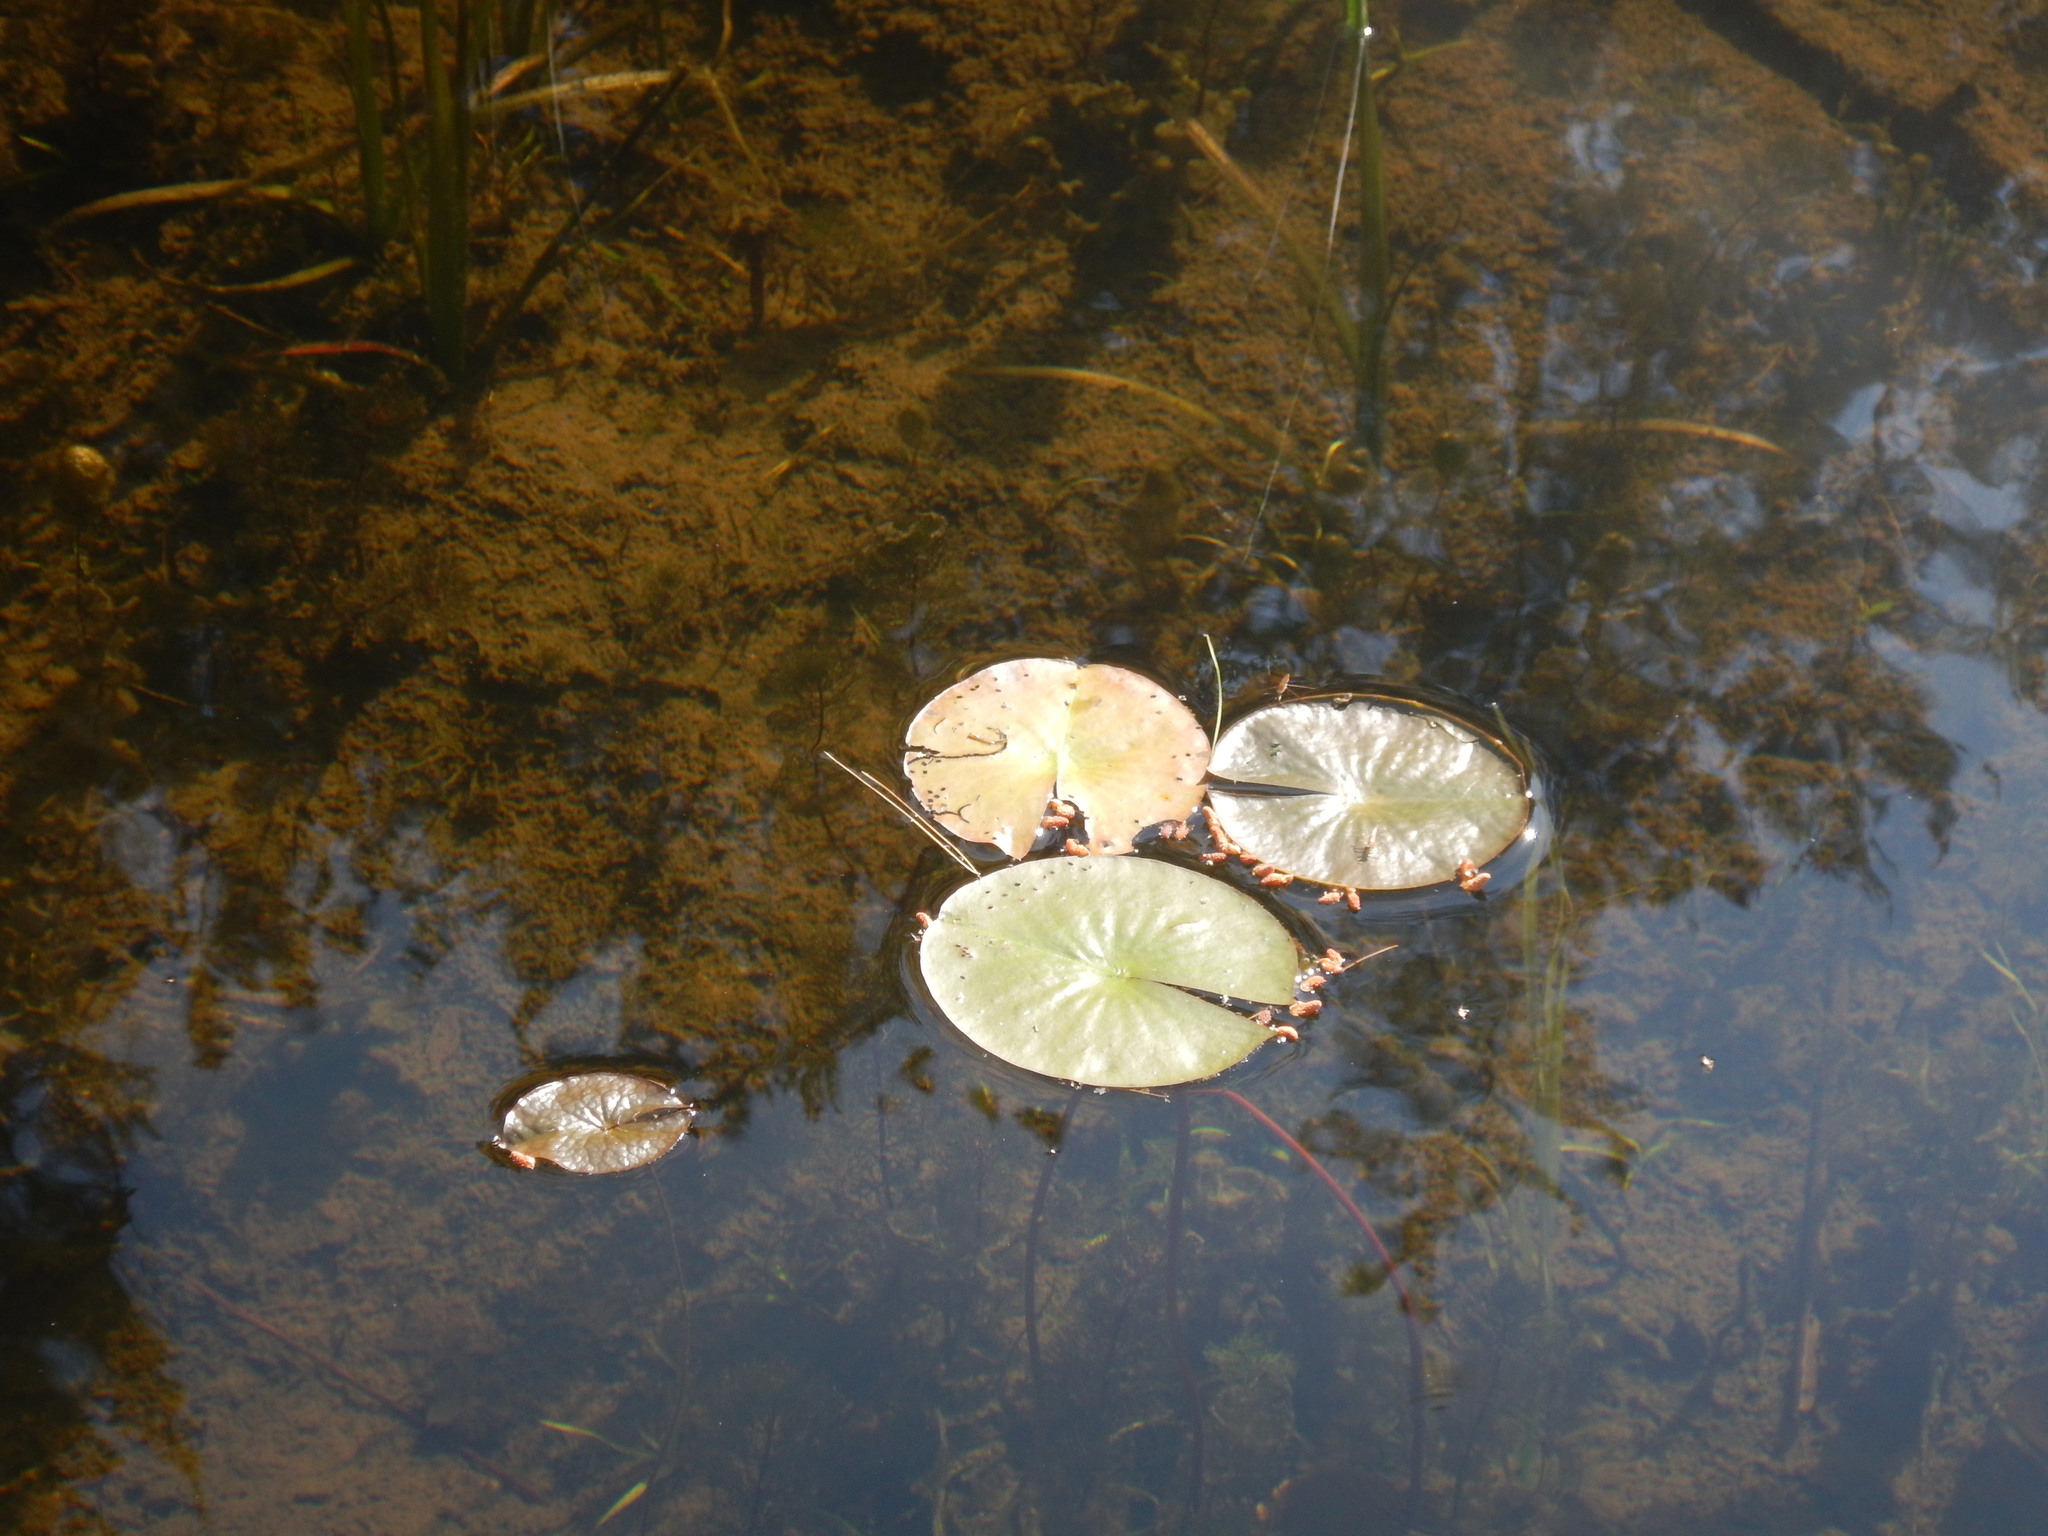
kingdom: Plantae
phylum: Tracheophyta
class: Magnoliopsida
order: Nymphaeales
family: Nymphaeaceae
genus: Nymphaea
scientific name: Nymphaea odorata
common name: Fragrant water-lily
